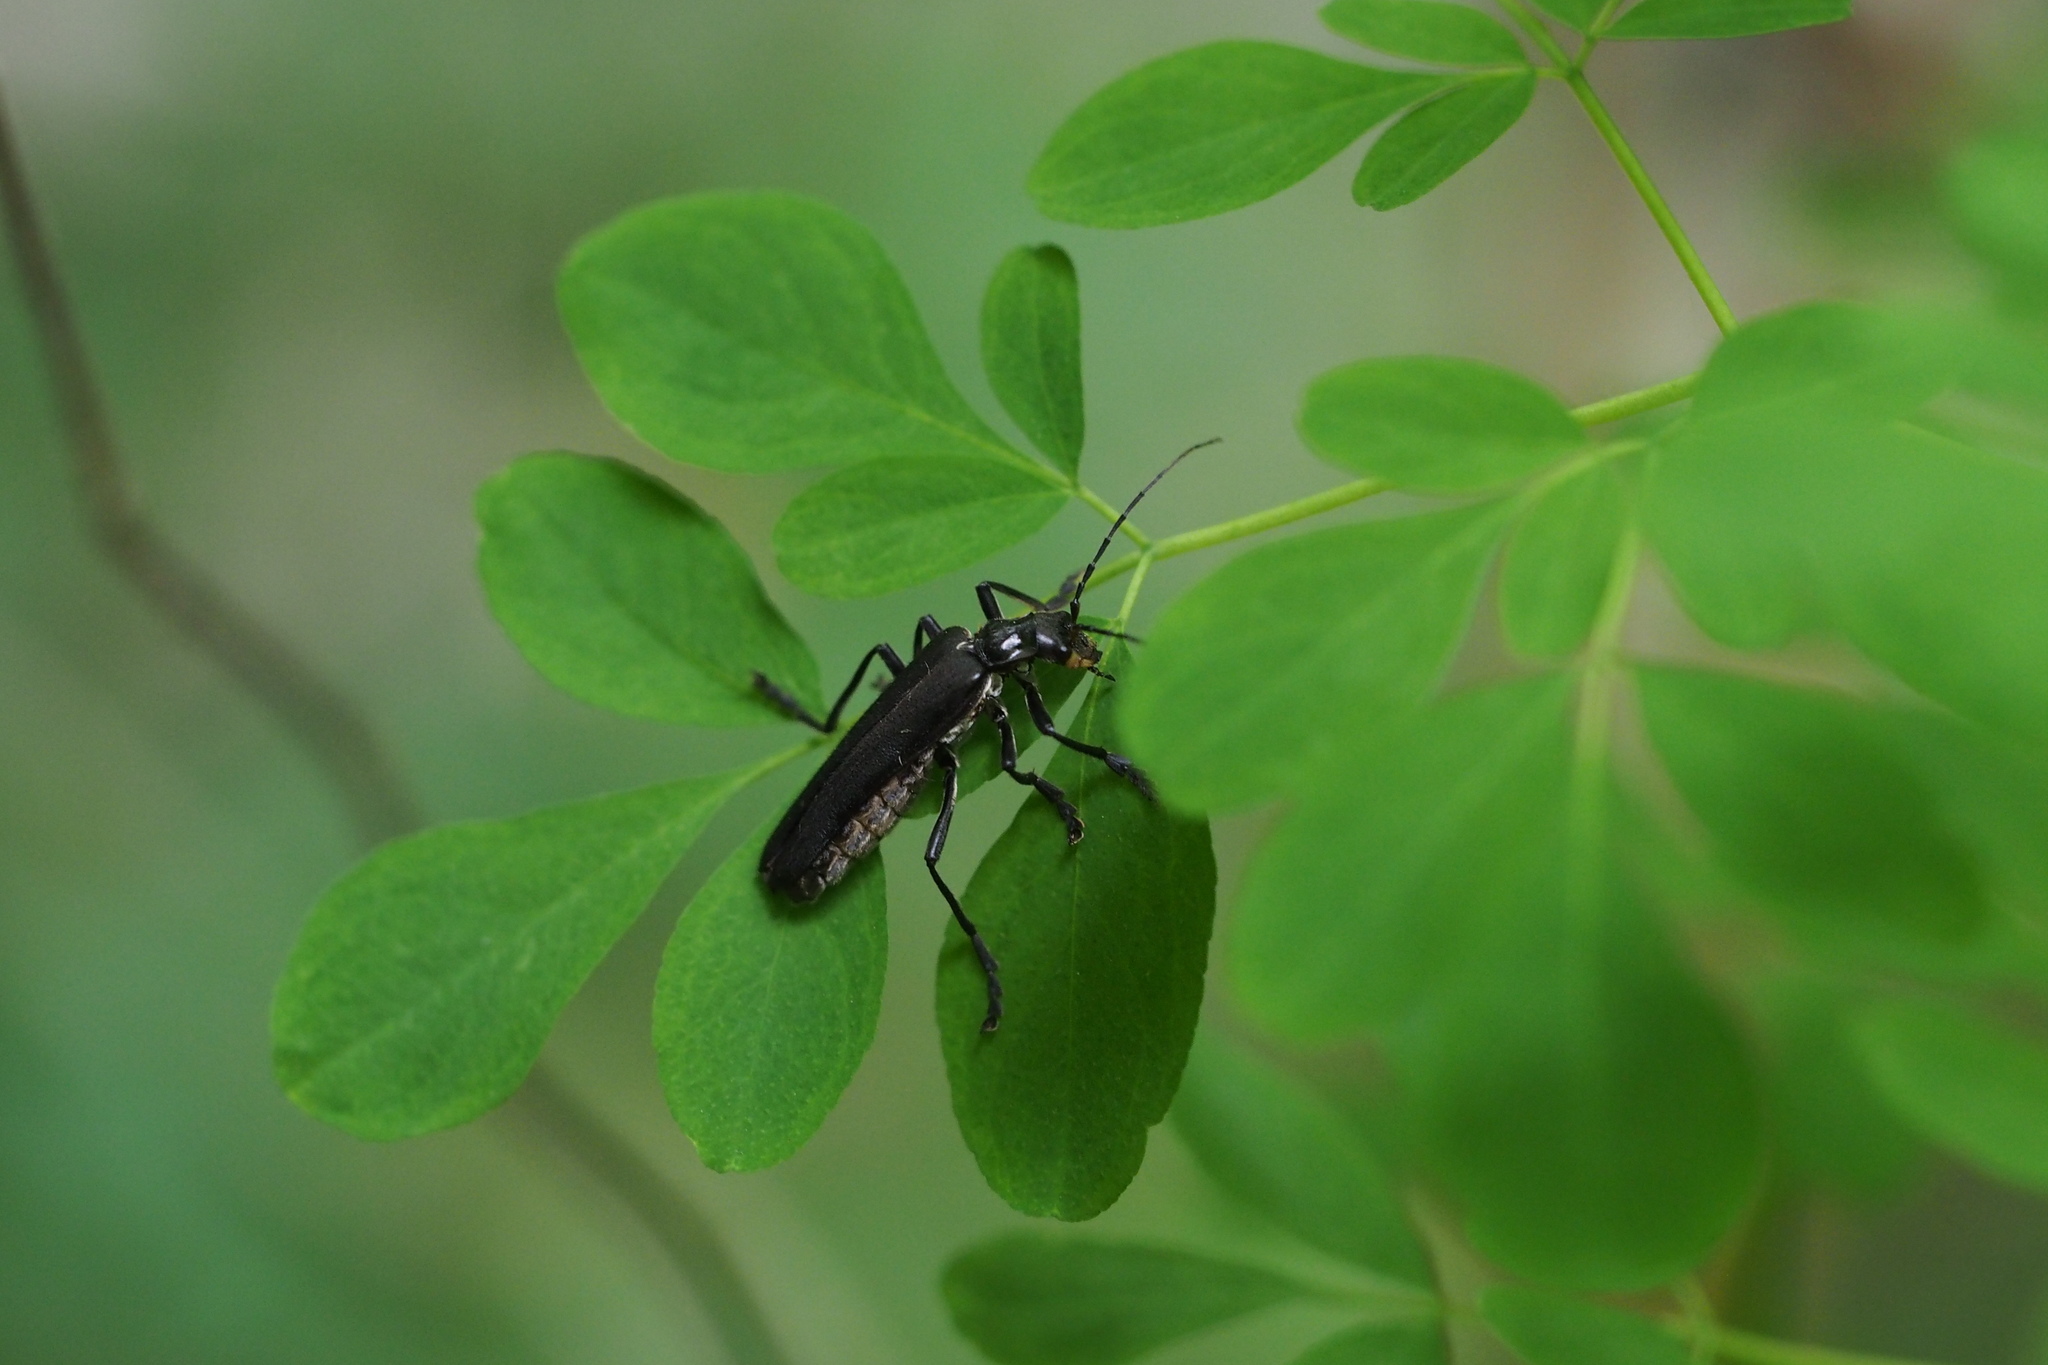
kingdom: Animalia
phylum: Arthropoda
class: Insecta
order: Coleoptera
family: Cantharidae
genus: Lycocerus
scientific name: Lycocerus
